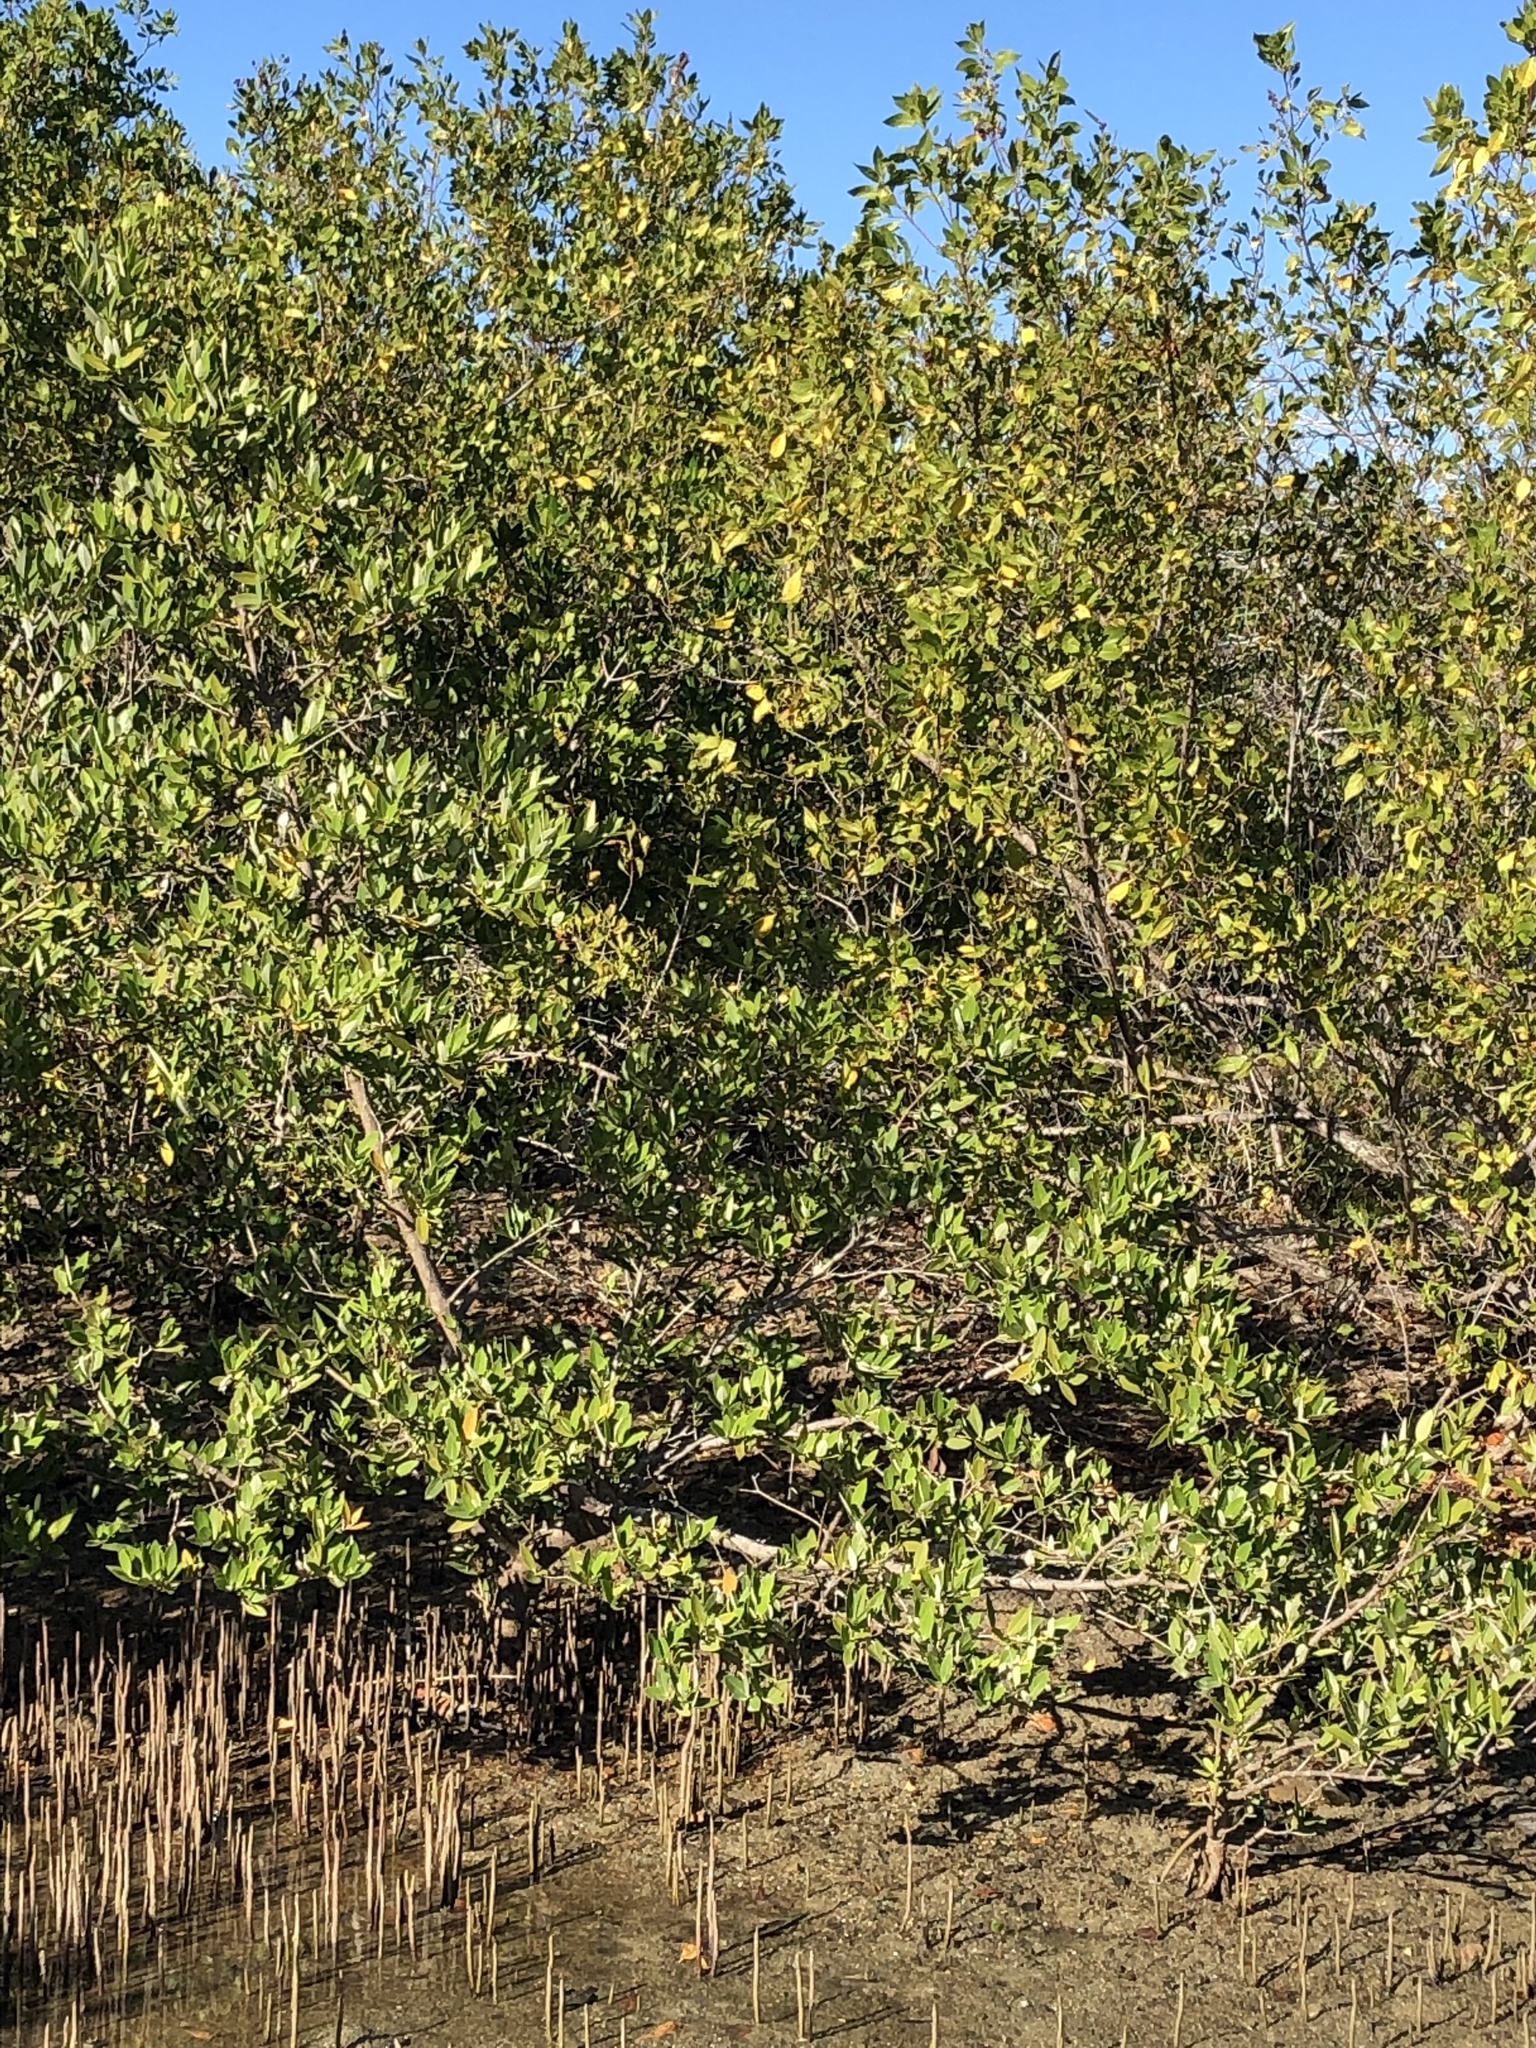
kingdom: Plantae
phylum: Tracheophyta
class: Magnoliopsida
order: Lamiales
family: Acanthaceae
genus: Avicennia
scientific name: Avicennia germinans
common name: Black mangrove
